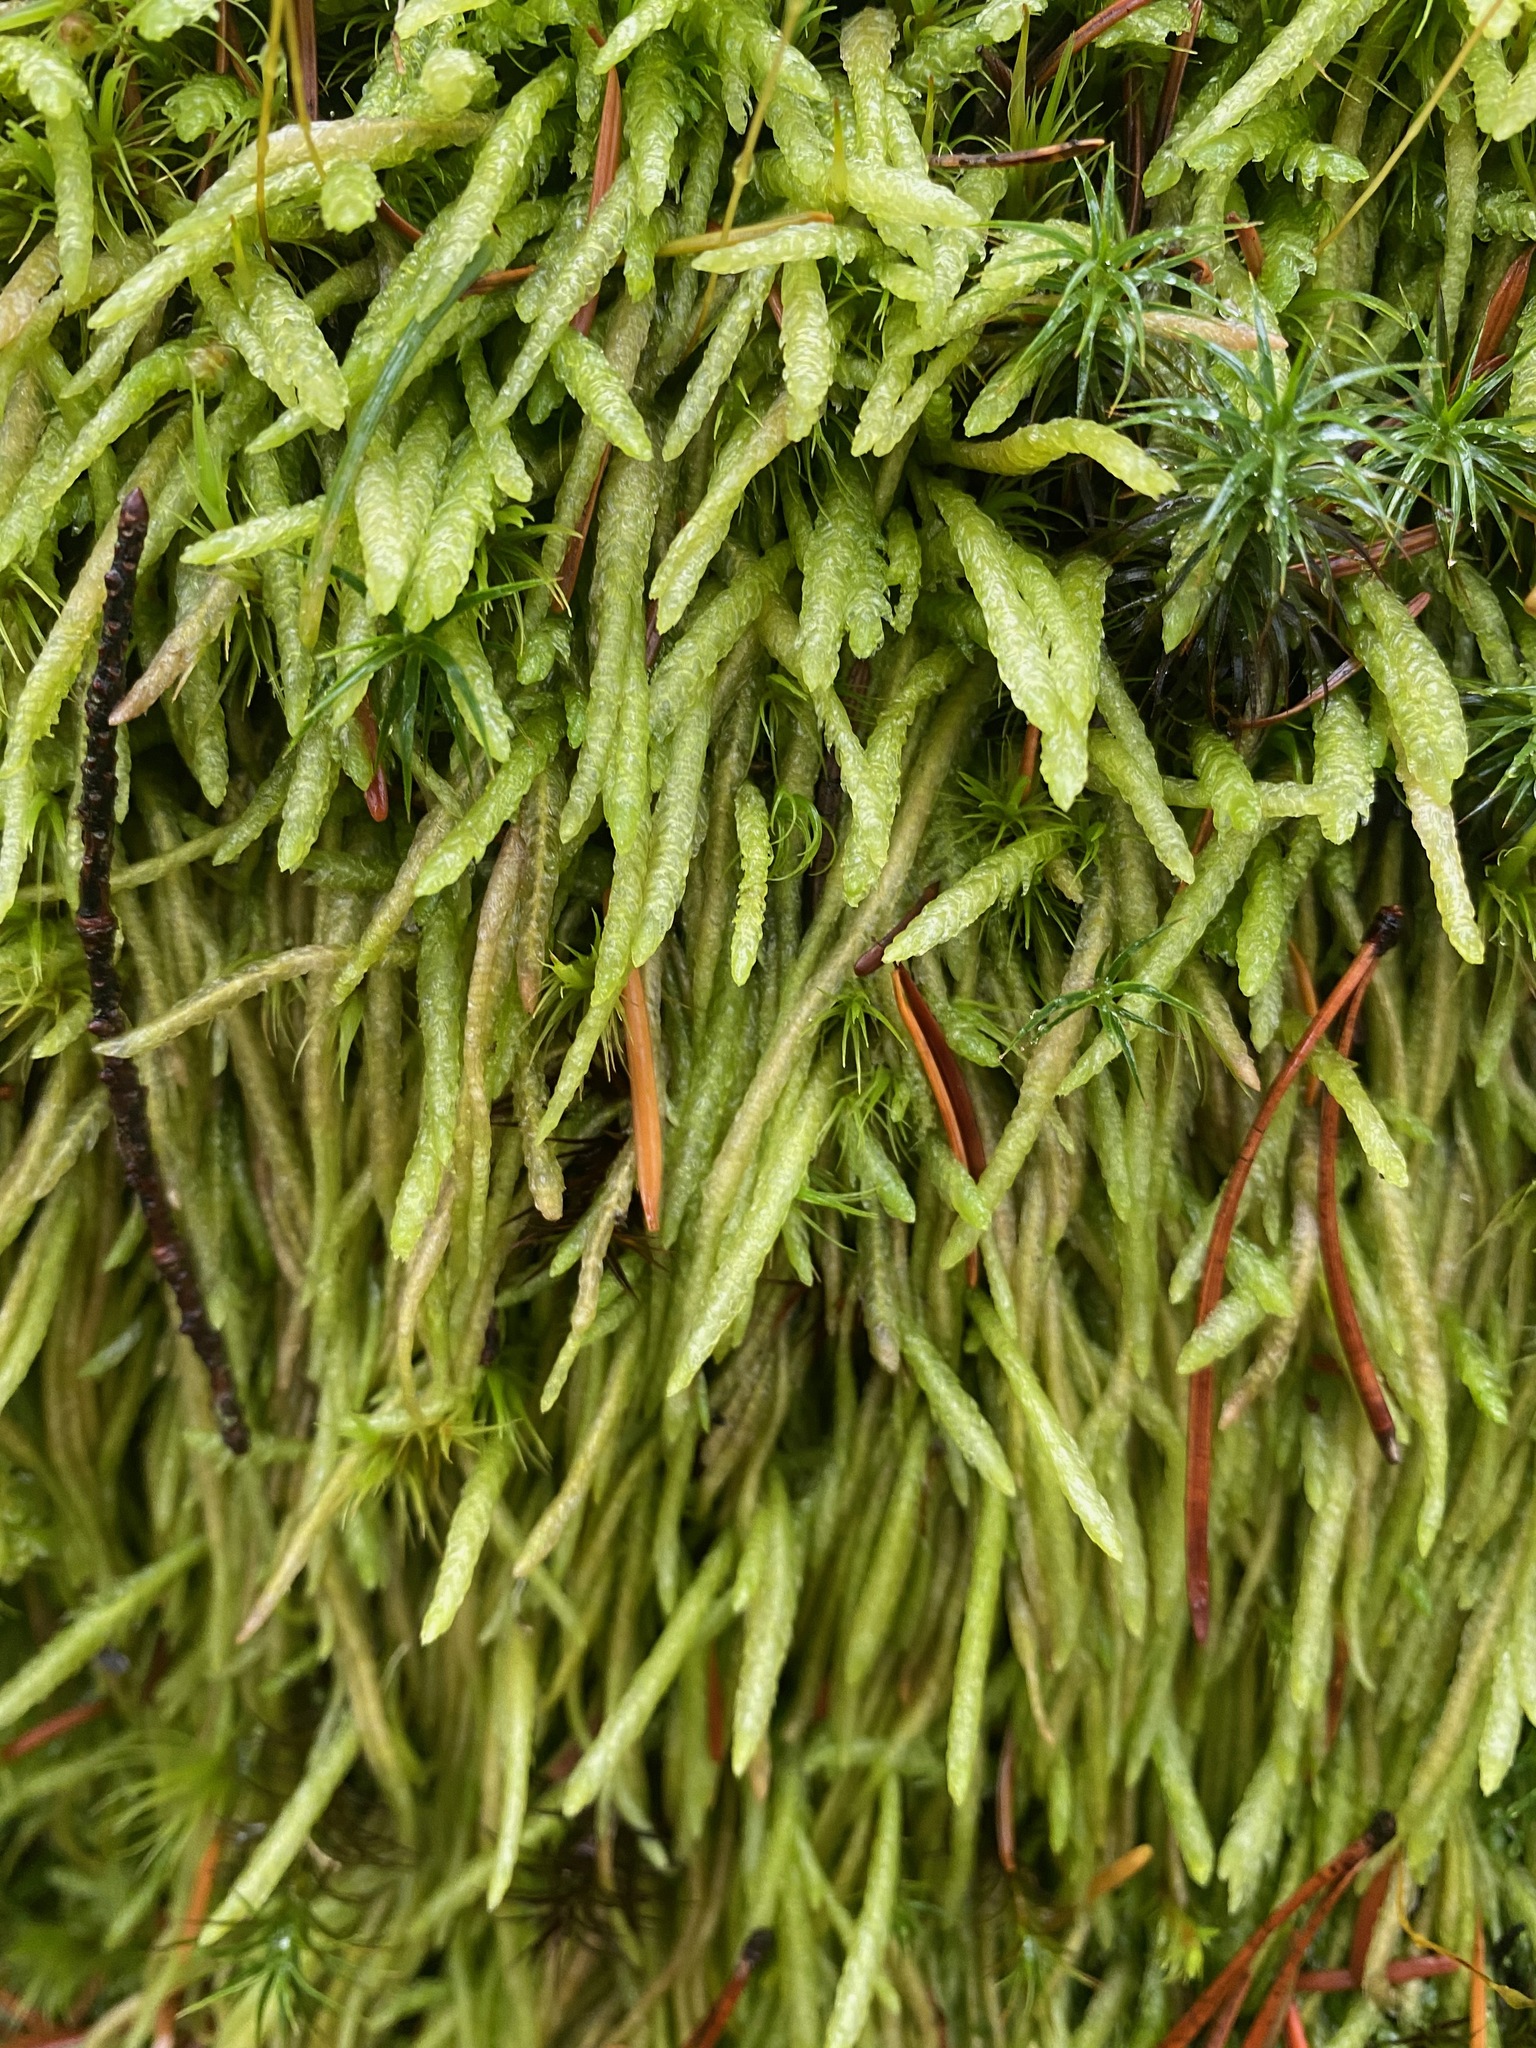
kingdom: Plantae
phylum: Bryophyta
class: Bryopsida
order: Hypnales
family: Plagiotheciaceae
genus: Plagiothecium
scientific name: Plagiothecium undulatum
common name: Waved silk-moss
